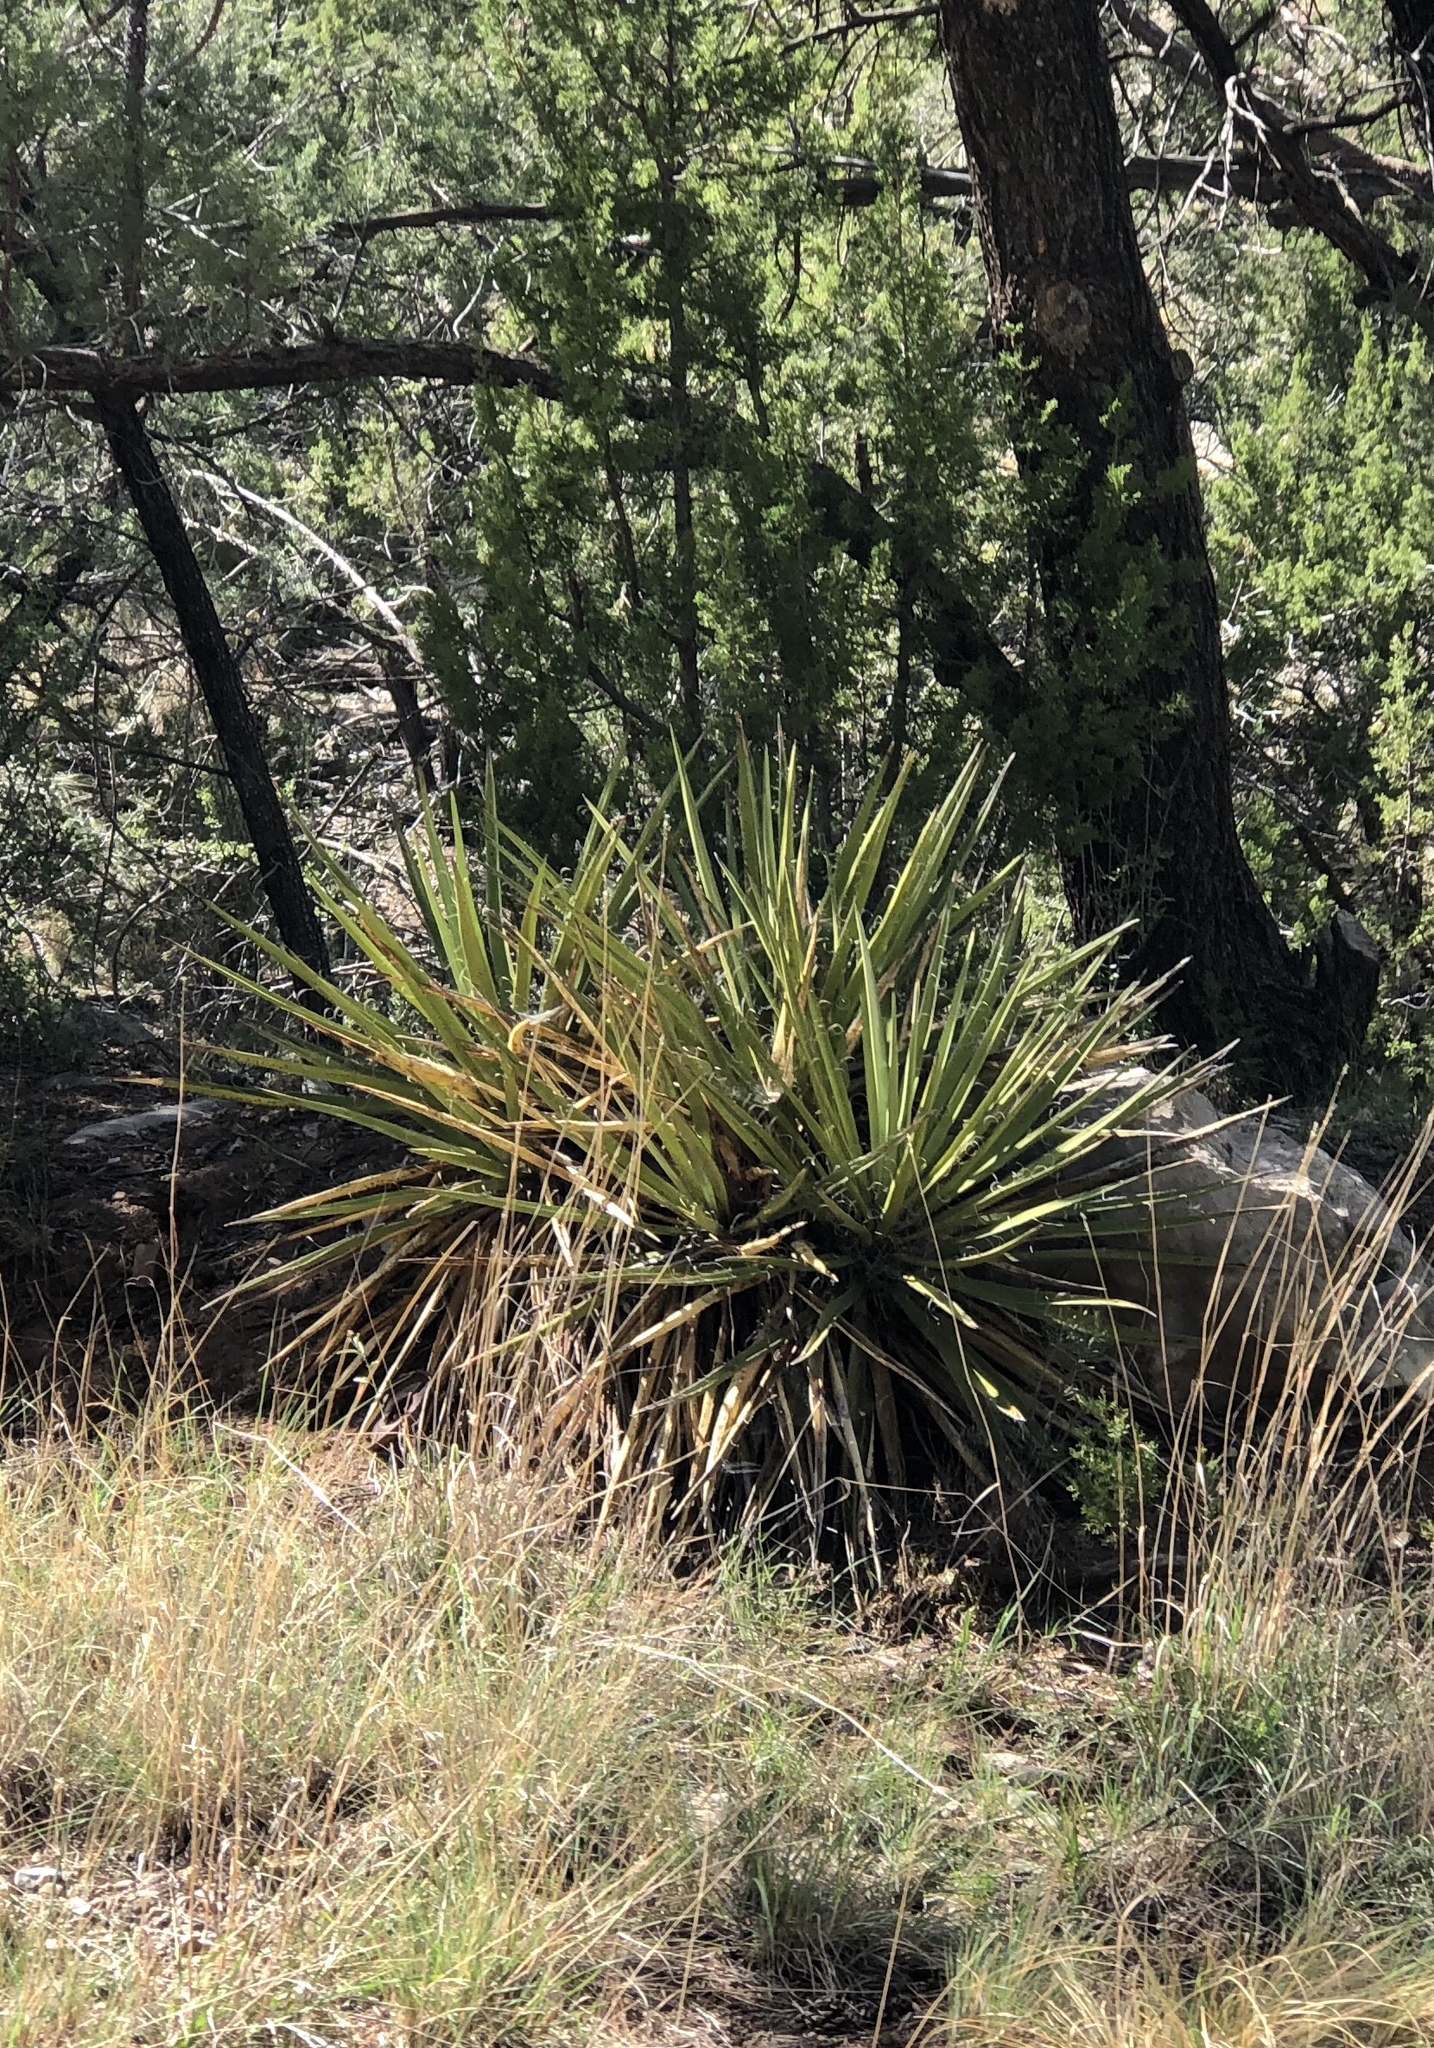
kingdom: Plantae
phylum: Tracheophyta
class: Liliopsida
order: Asparagales
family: Asparagaceae
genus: Yucca
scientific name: Yucca baccata
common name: Banana yucca
